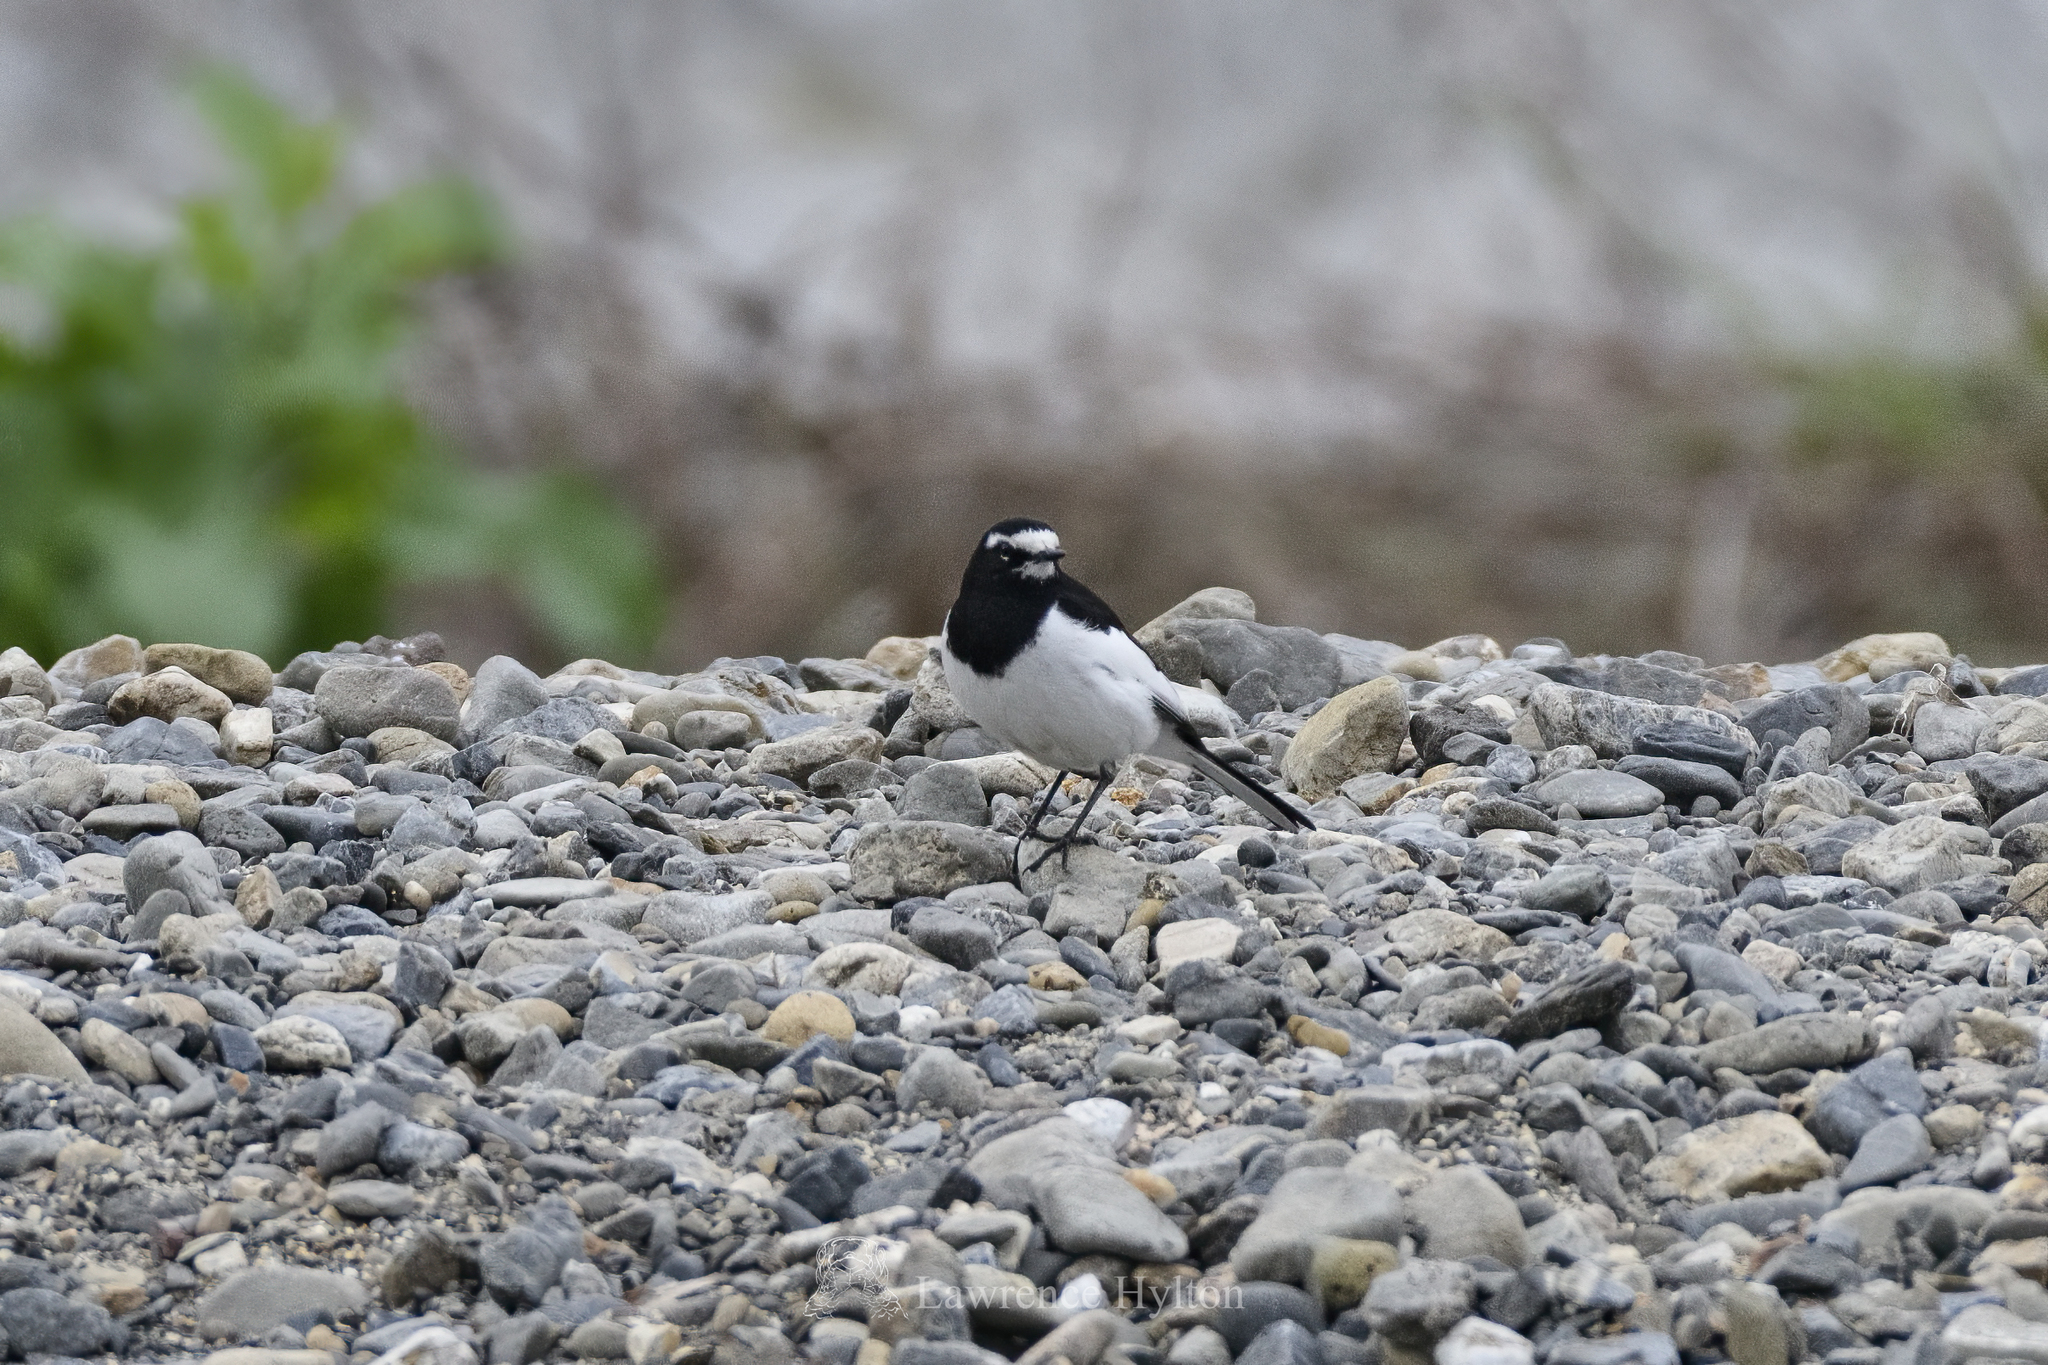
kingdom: Animalia
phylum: Chordata
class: Aves
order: Passeriformes
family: Motacillidae
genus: Motacilla
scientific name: Motacilla grandis
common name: Japanese wagtail
